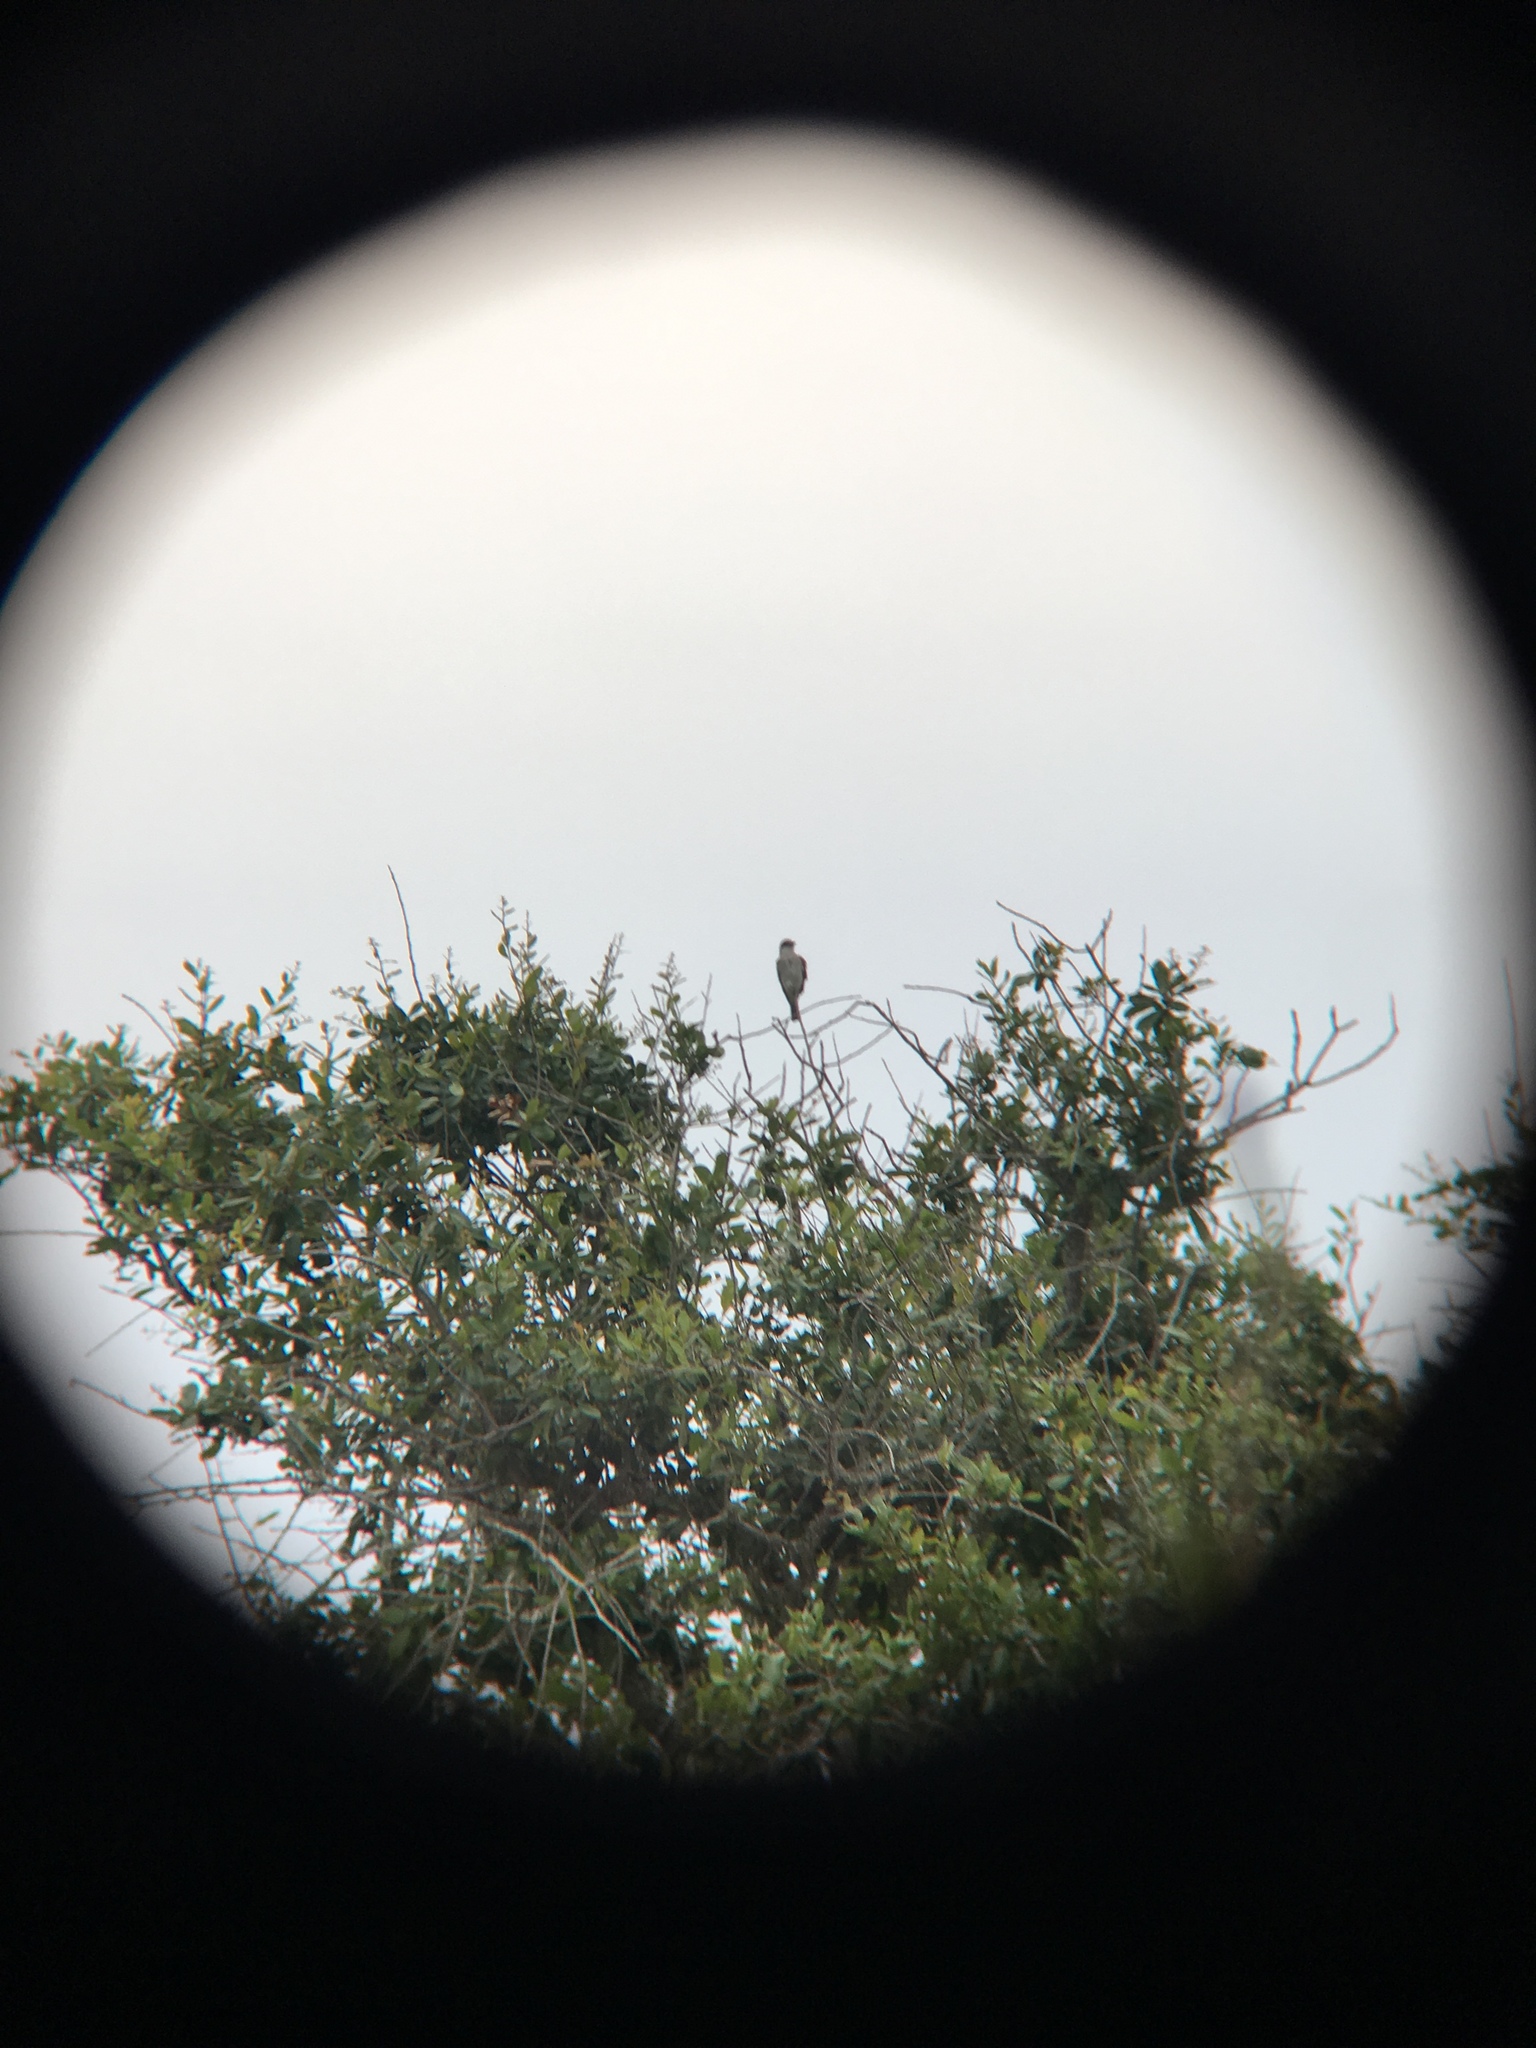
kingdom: Animalia
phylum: Chordata
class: Aves
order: Passeriformes
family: Tyrannidae
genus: Tyrannus
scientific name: Tyrannus dominicensis
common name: Gray kingbird
